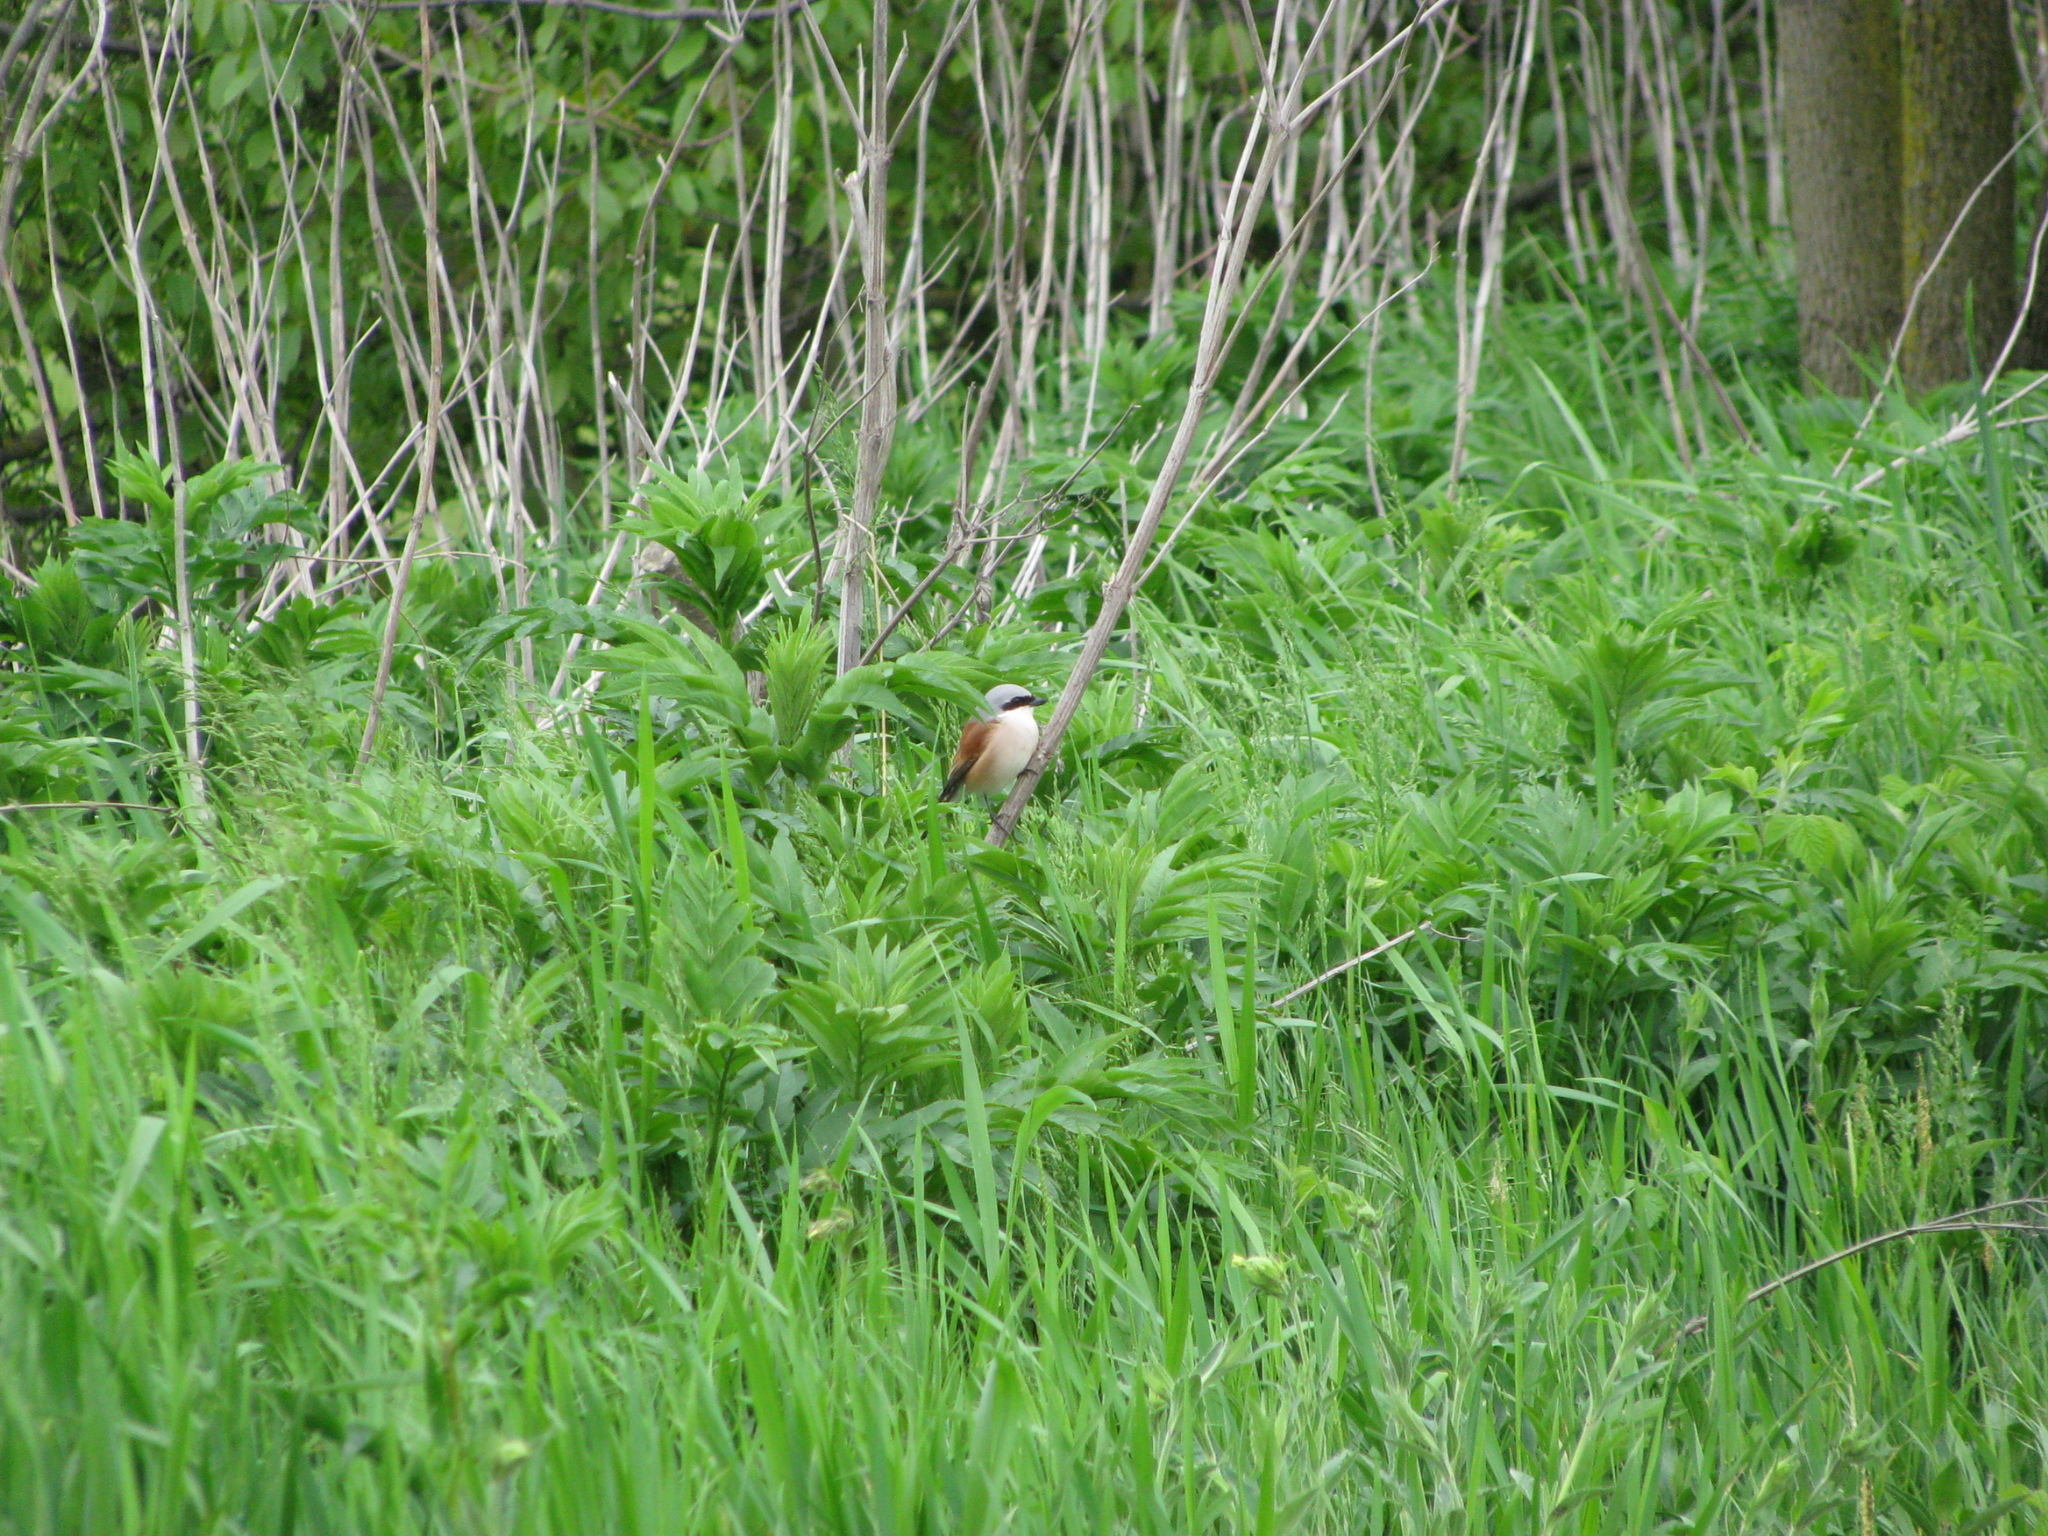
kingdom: Plantae
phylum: Tracheophyta
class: Magnoliopsida
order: Dipsacales
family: Viburnaceae
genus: Sambucus
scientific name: Sambucus ebulus
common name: Dwarf elder
